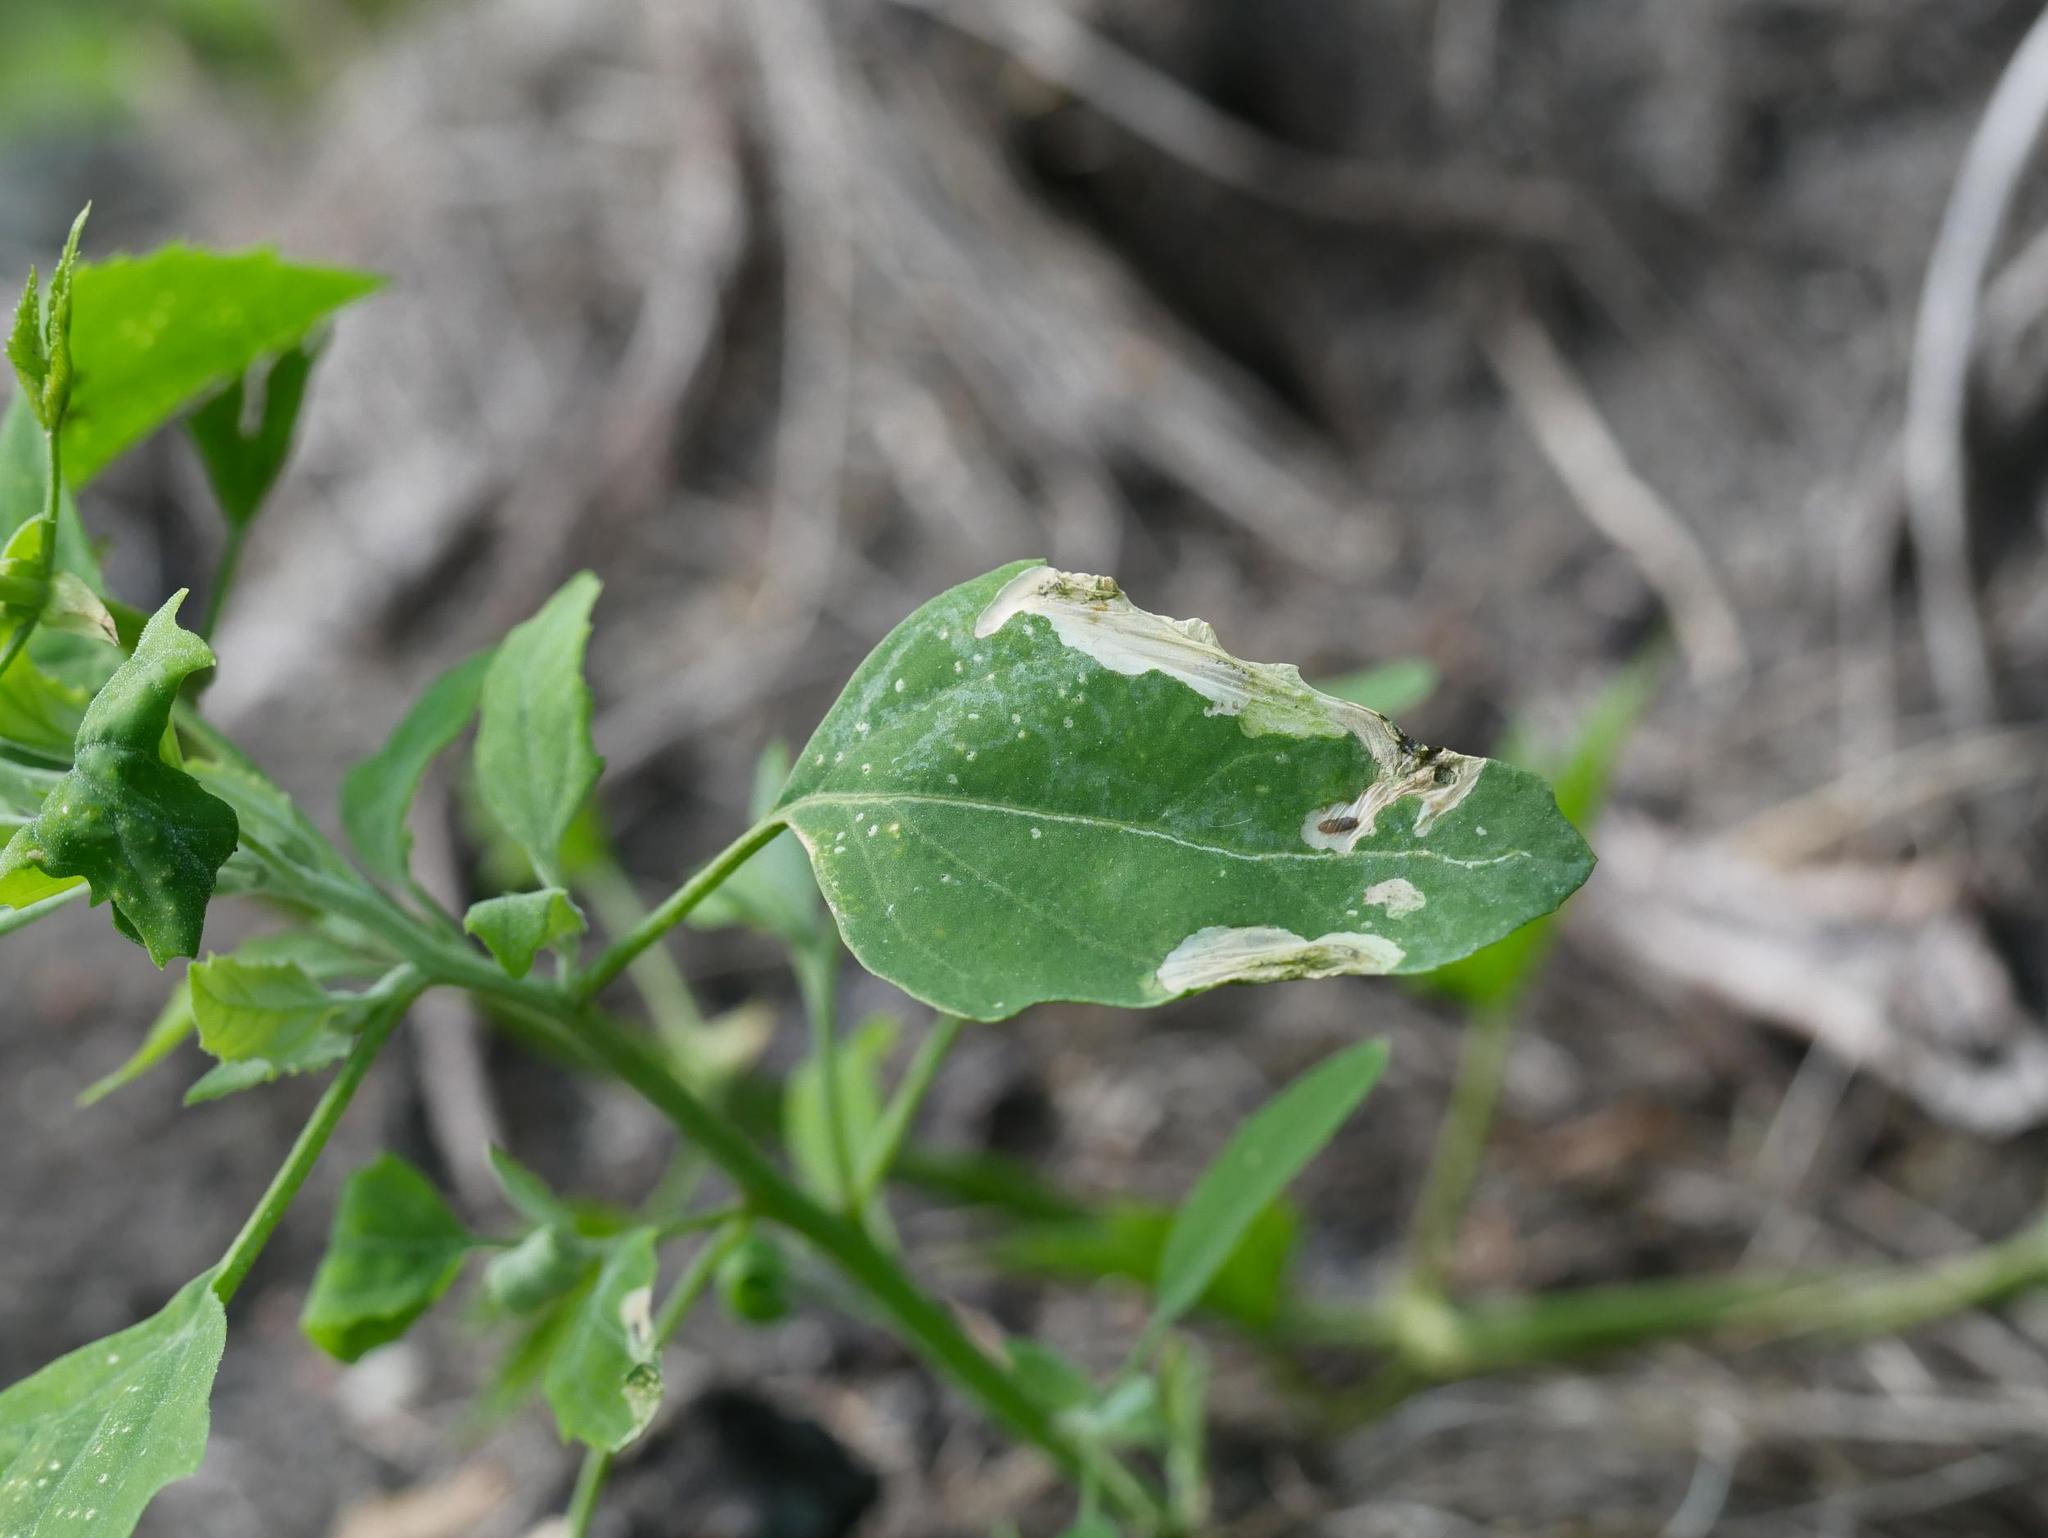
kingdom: Plantae
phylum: Tracheophyta
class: Magnoliopsida
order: Caryophyllales
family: Amaranthaceae
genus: Chenopodium
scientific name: Chenopodium album
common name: Fat-hen
